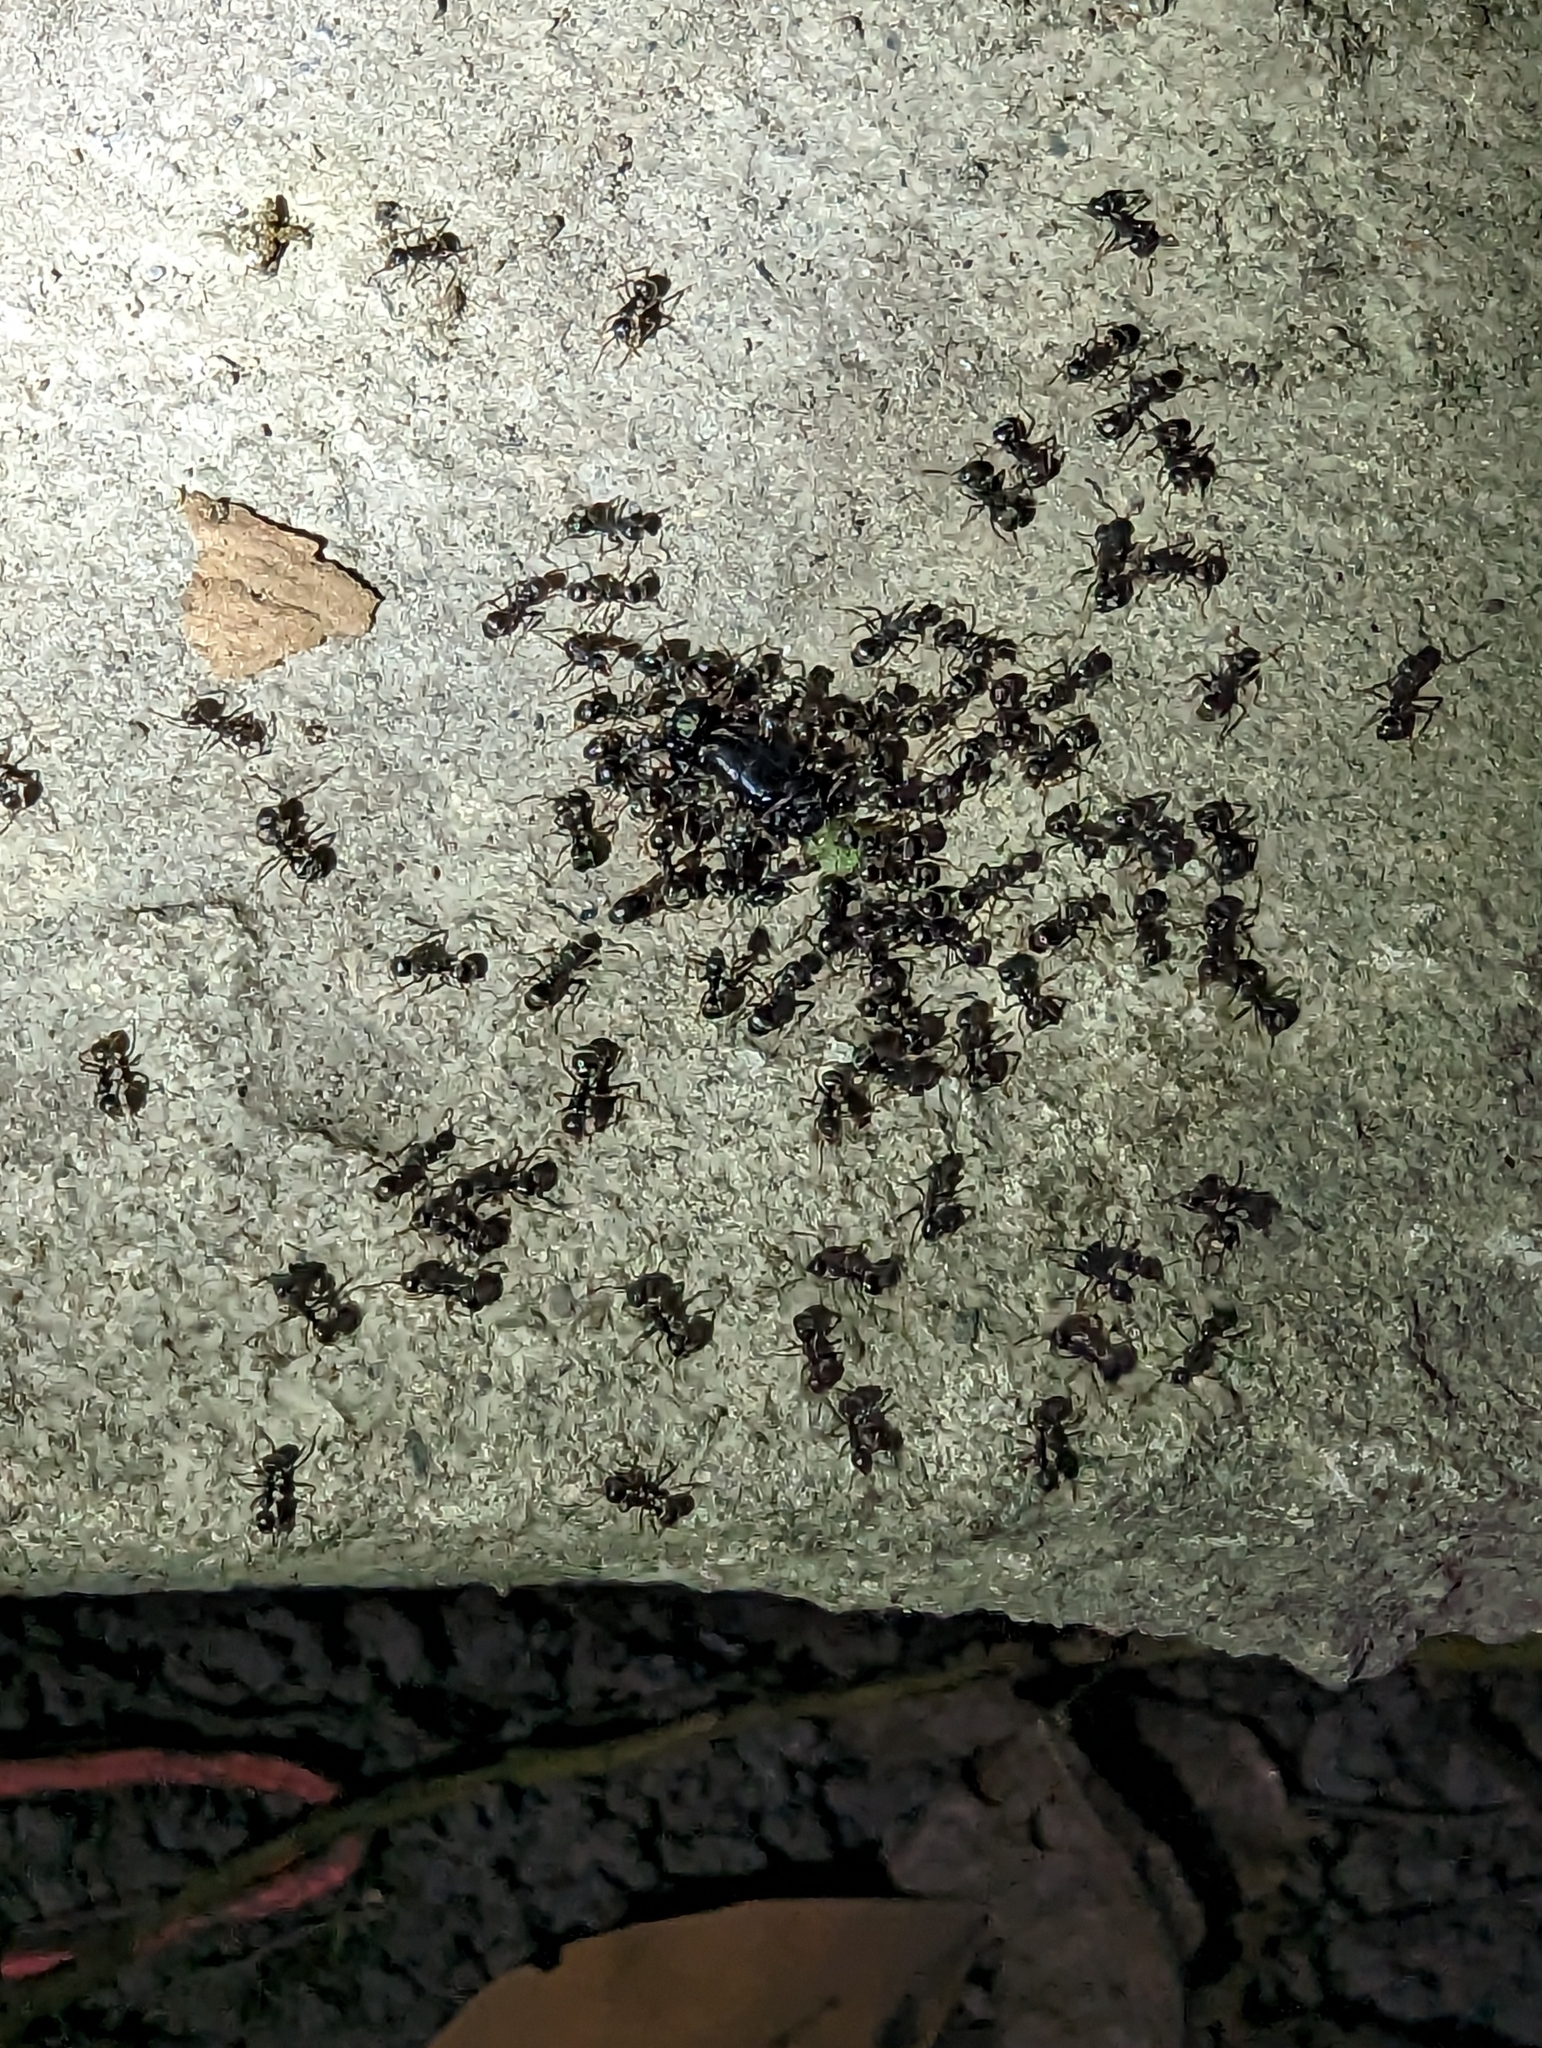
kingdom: Animalia
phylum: Arthropoda
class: Insecta
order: Hymenoptera
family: Formicidae
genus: Dolichoderus
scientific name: Dolichoderus thoracicus
